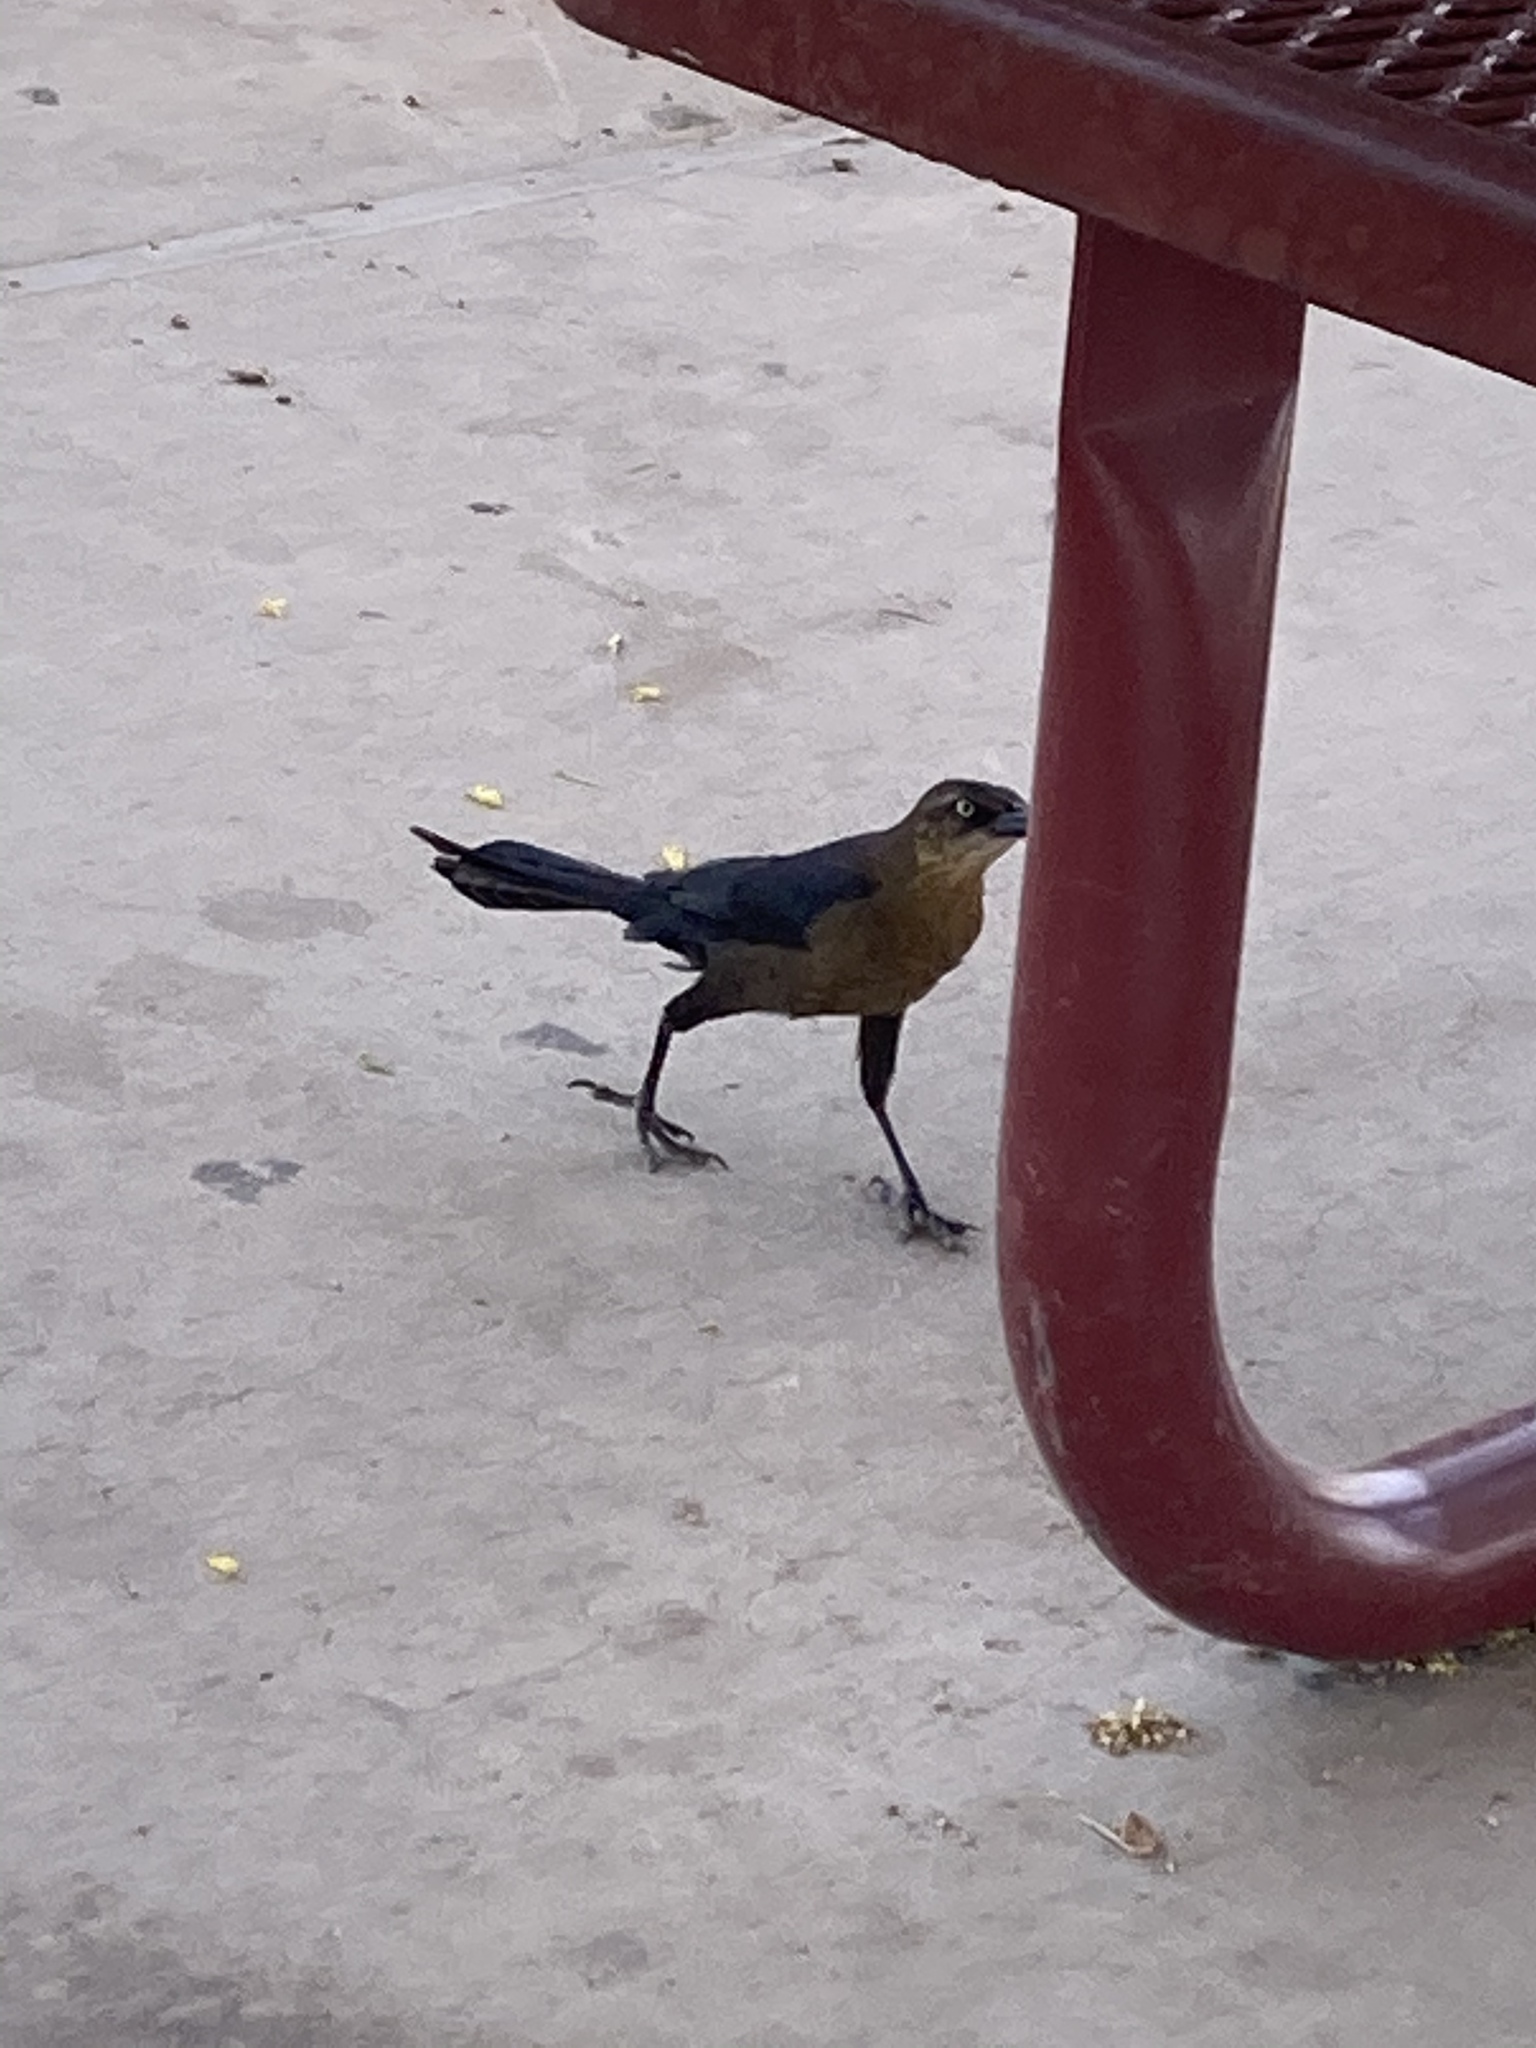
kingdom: Animalia
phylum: Chordata
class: Aves
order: Passeriformes
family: Icteridae
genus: Quiscalus
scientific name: Quiscalus mexicanus
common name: Great-tailed grackle
